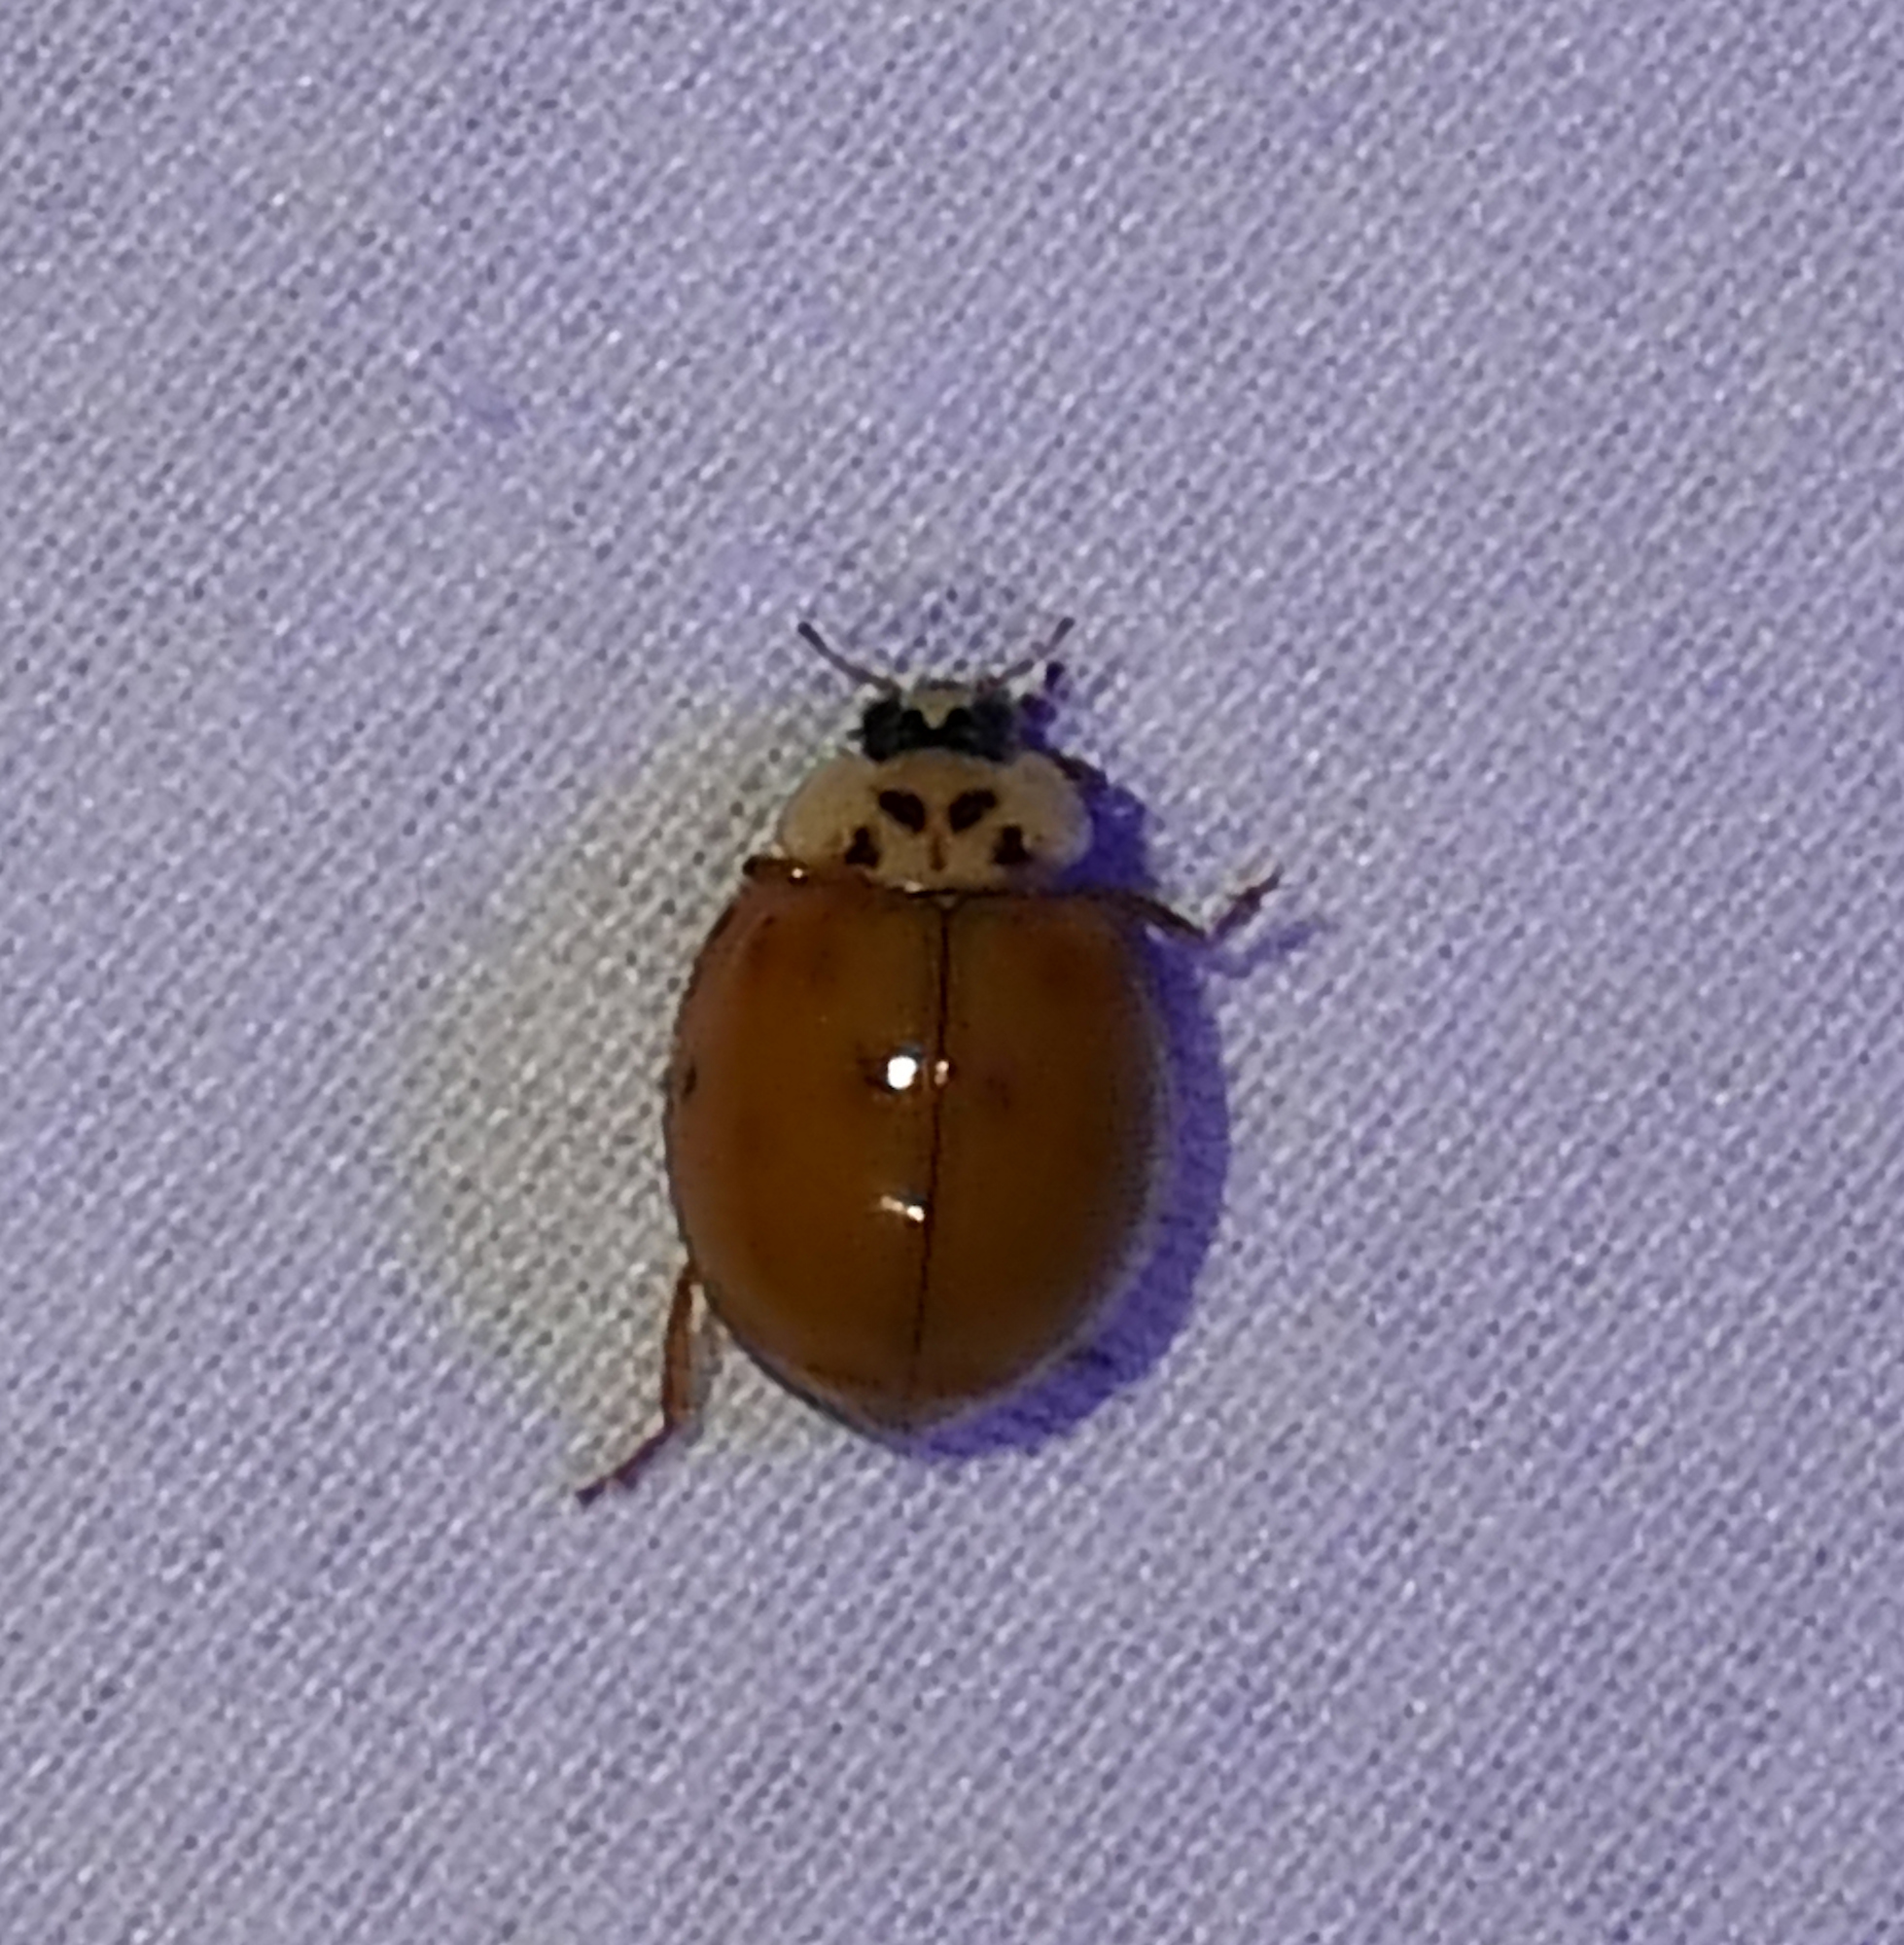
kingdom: Animalia
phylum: Arthropoda
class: Insecta
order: Coleoptera
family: Coccinellidae
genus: Harmonia
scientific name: Harmonia axyridis
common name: Harlequin ladybird
